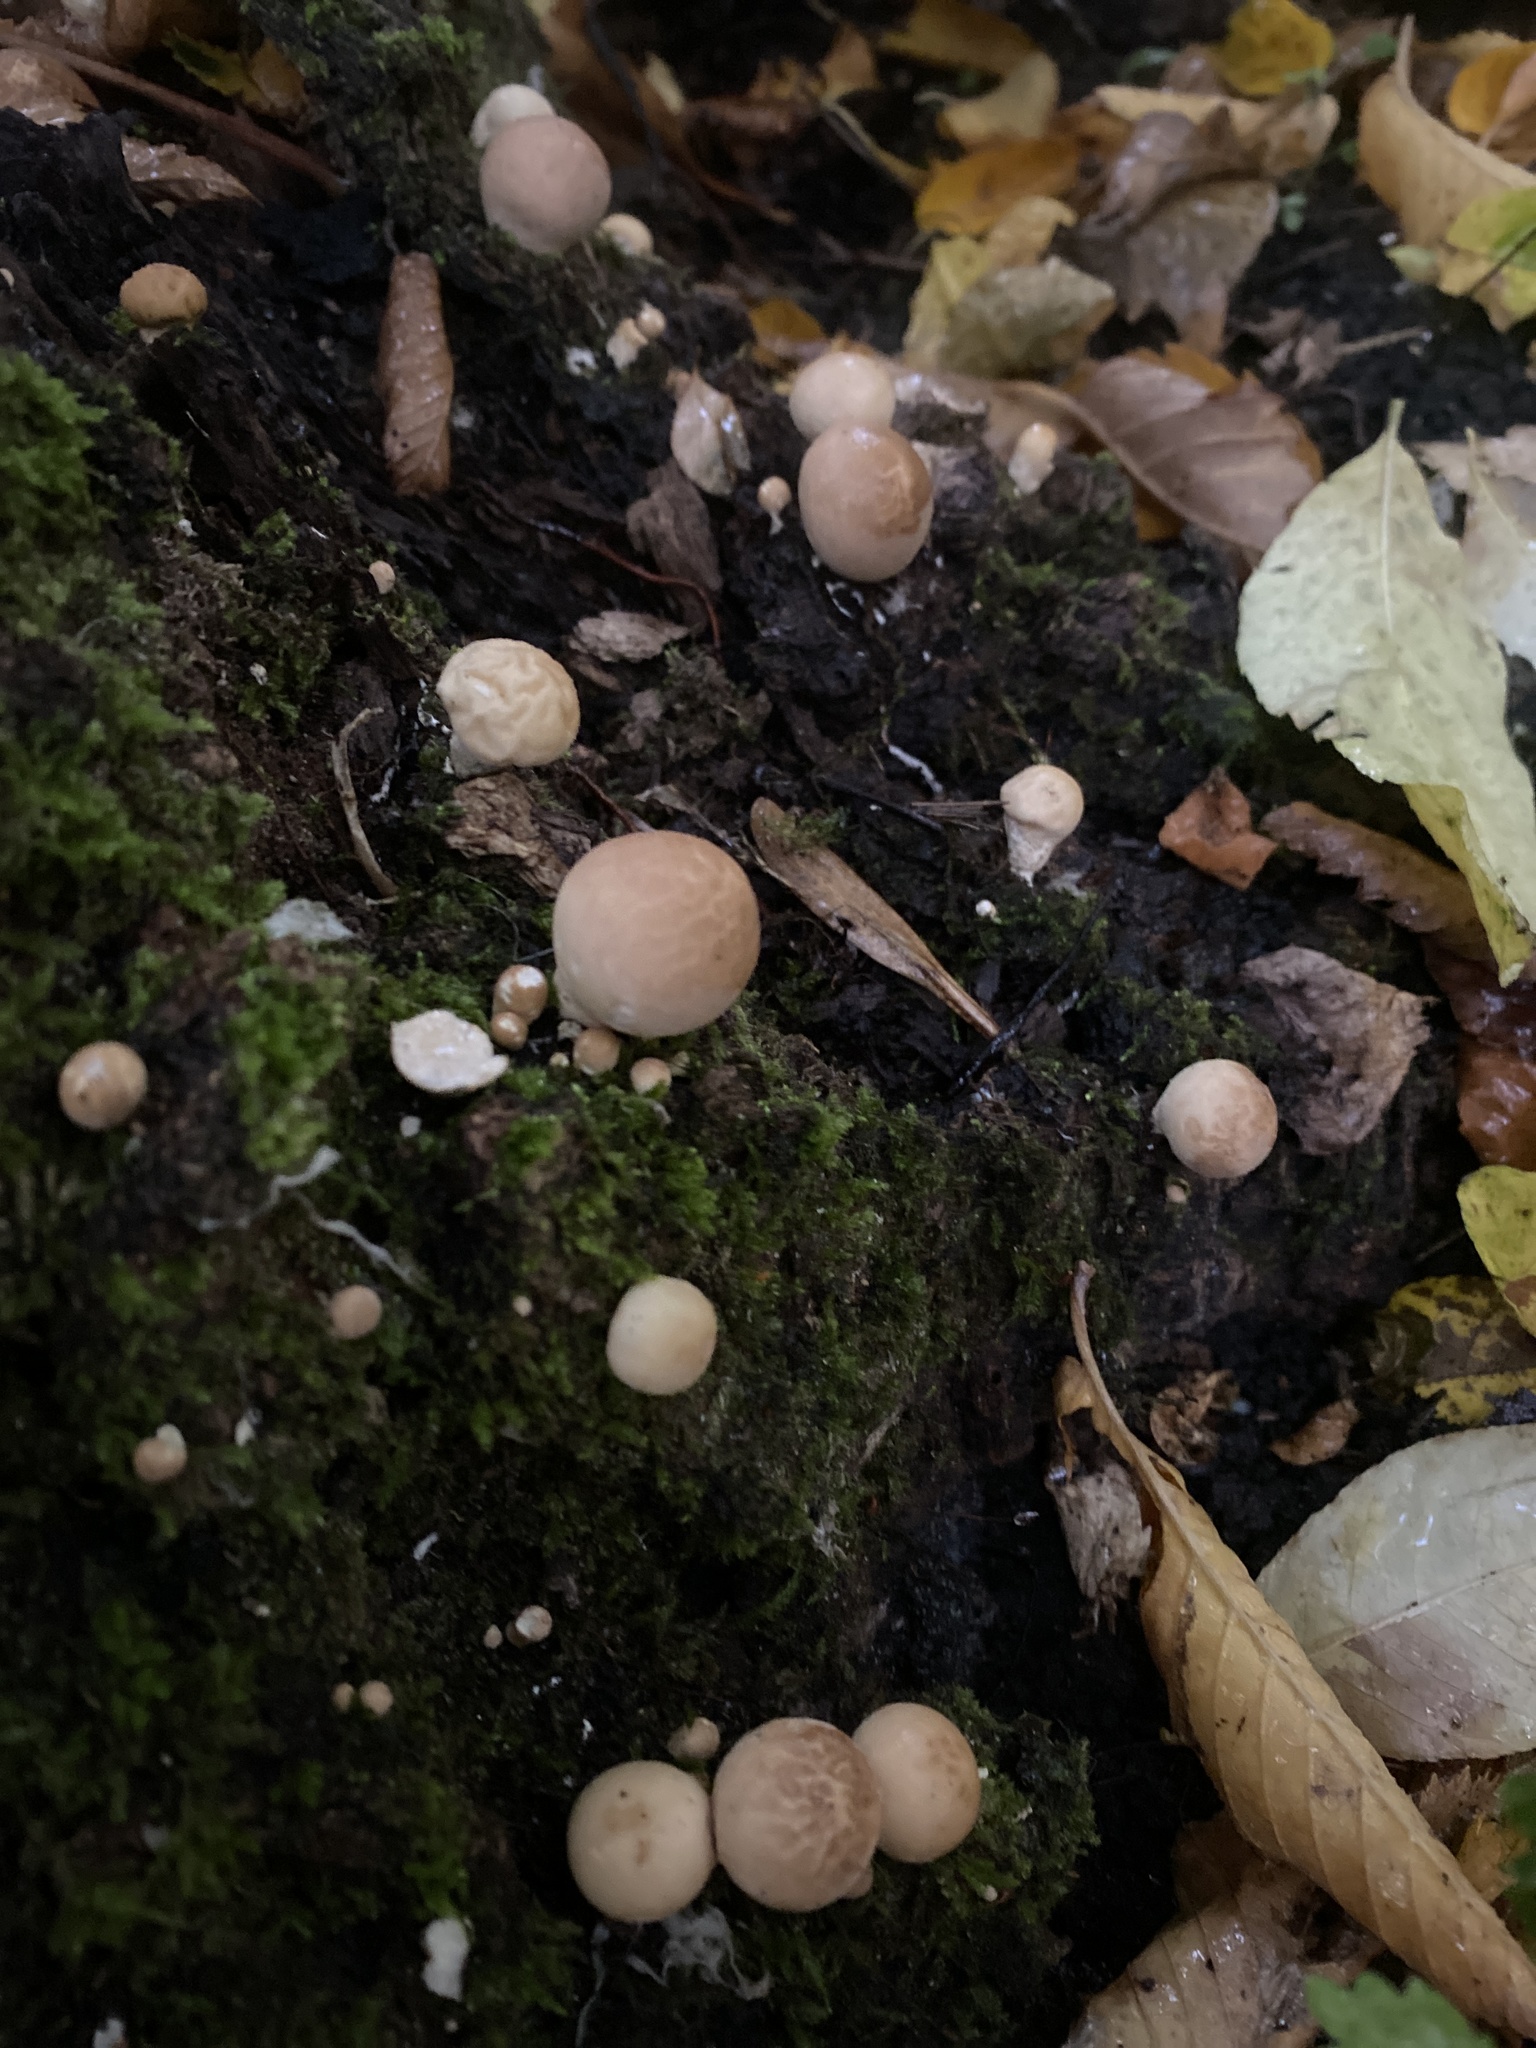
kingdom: Fungi
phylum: Basidiomycota
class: Agaricomycetes
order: Agaricales
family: Lycoperdaceae
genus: Apioperdon
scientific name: Apioperdon pyriforme
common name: Pear-shaped puffball
